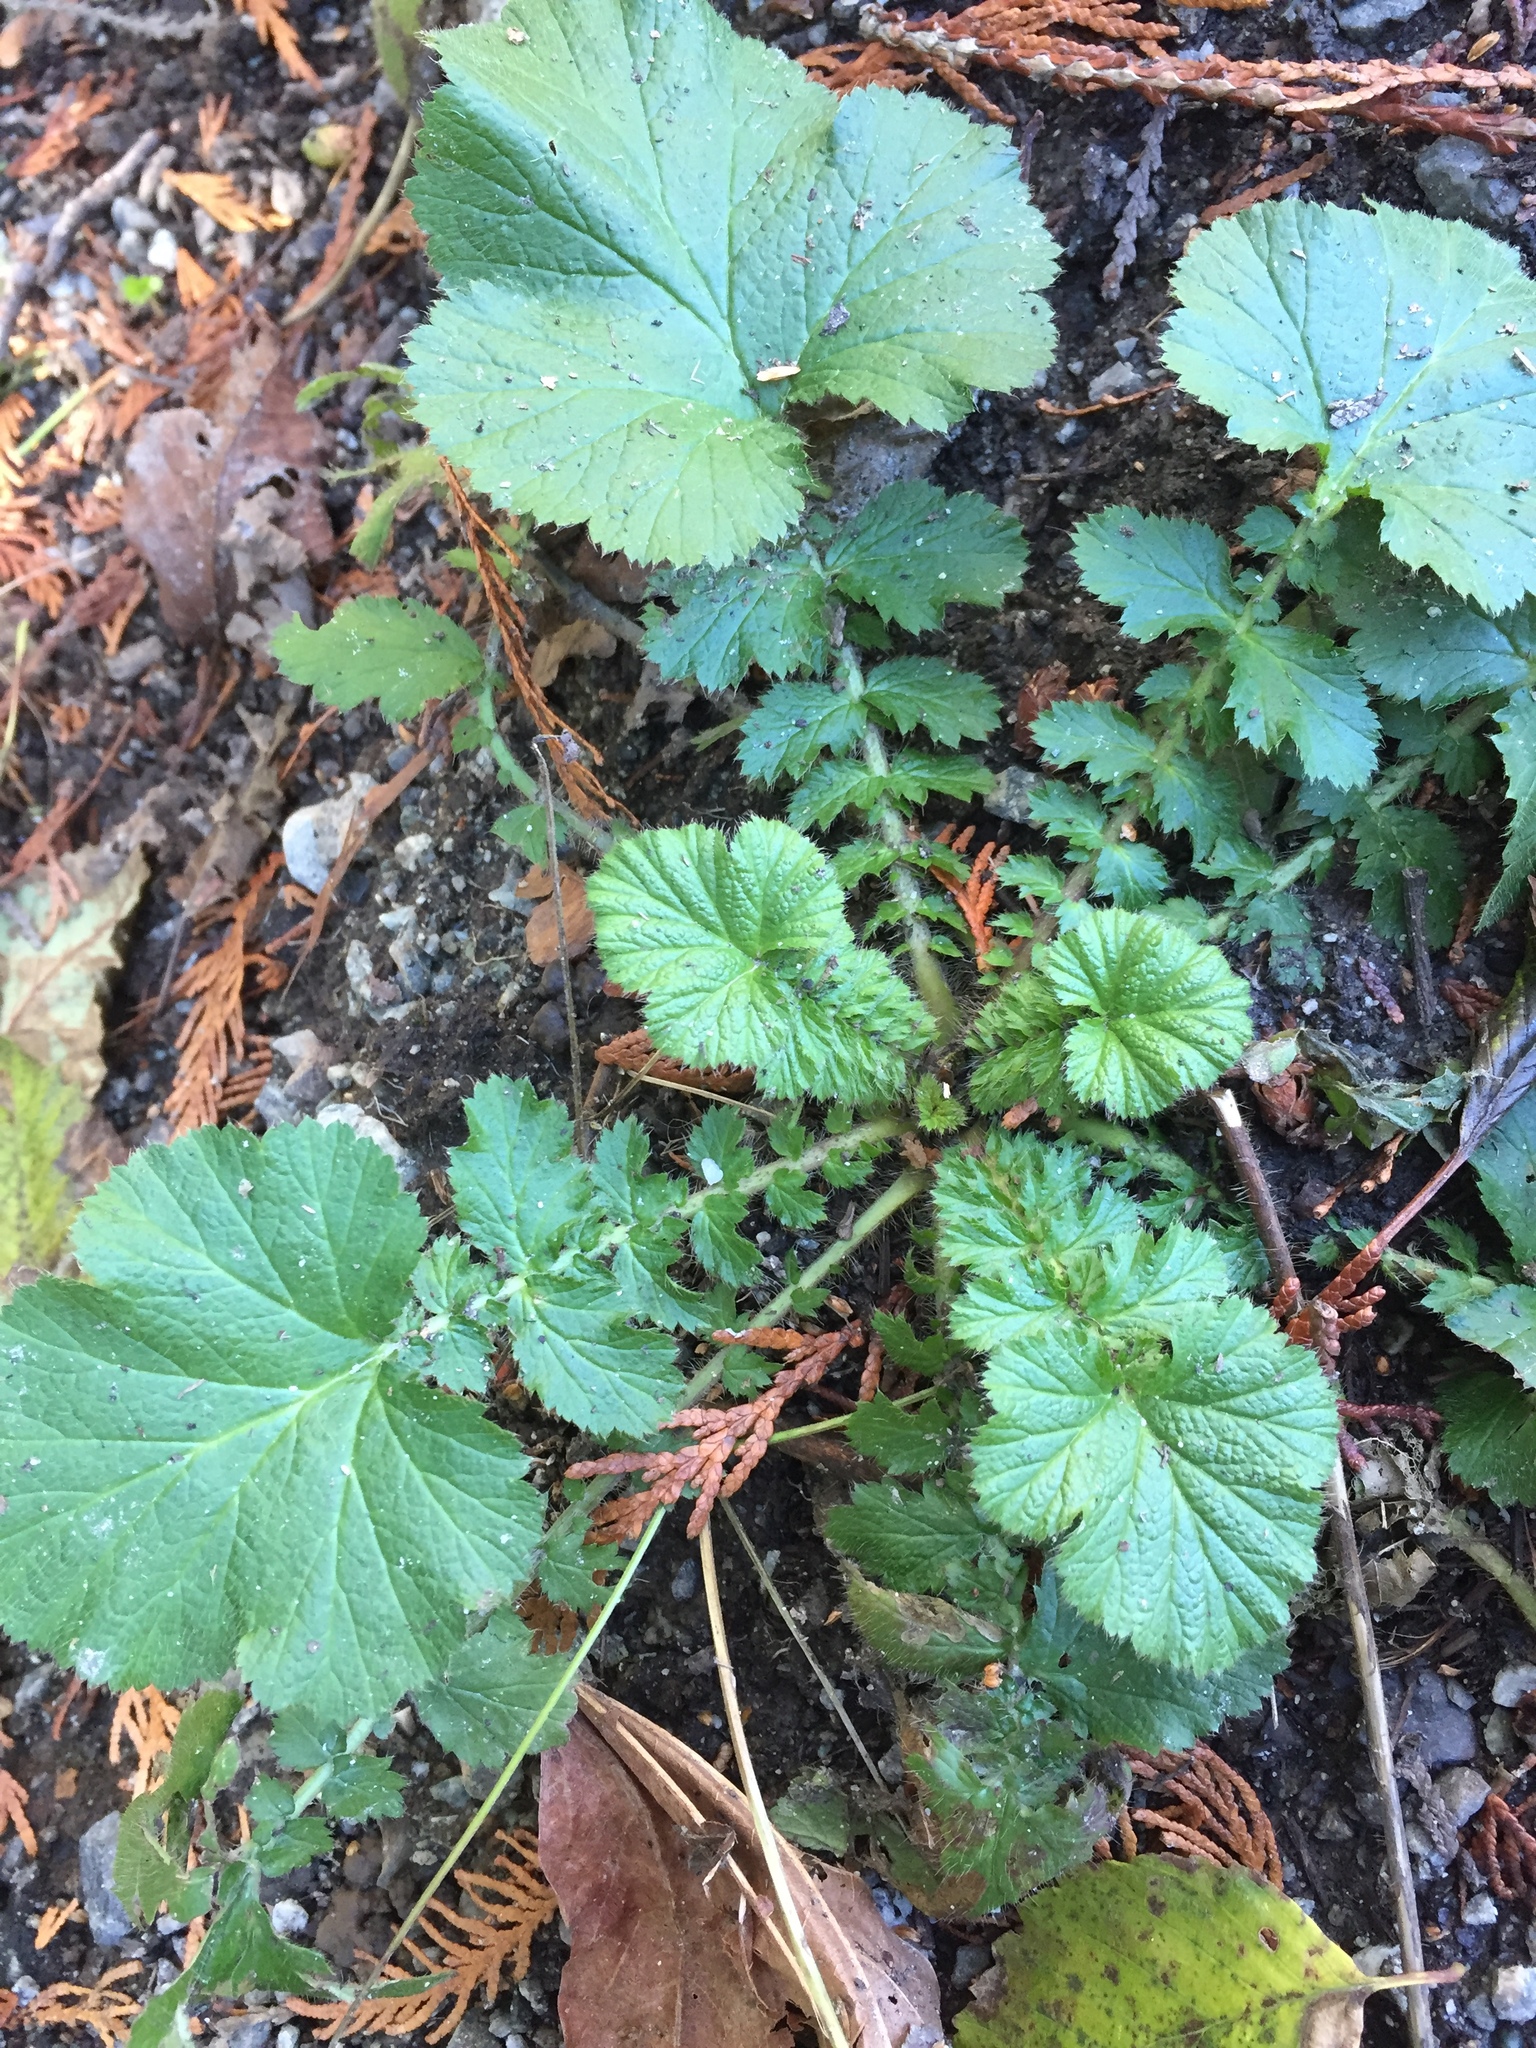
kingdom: Plantae
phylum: Tracheophyta
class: Magnoliopsida
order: Rosales
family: Rosaceae
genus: Geum
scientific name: Geum macrophyllum
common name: Large-leaved avens
